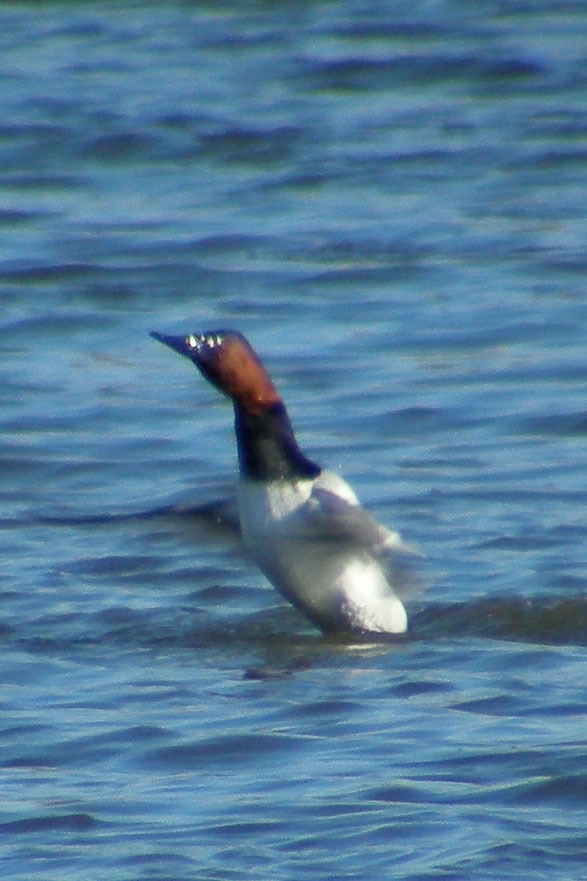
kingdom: Animalia
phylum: Chordata
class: Aves
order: Anseriformes
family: Anatidae
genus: Aythya
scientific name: Aythya valisineria
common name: Canvasback
